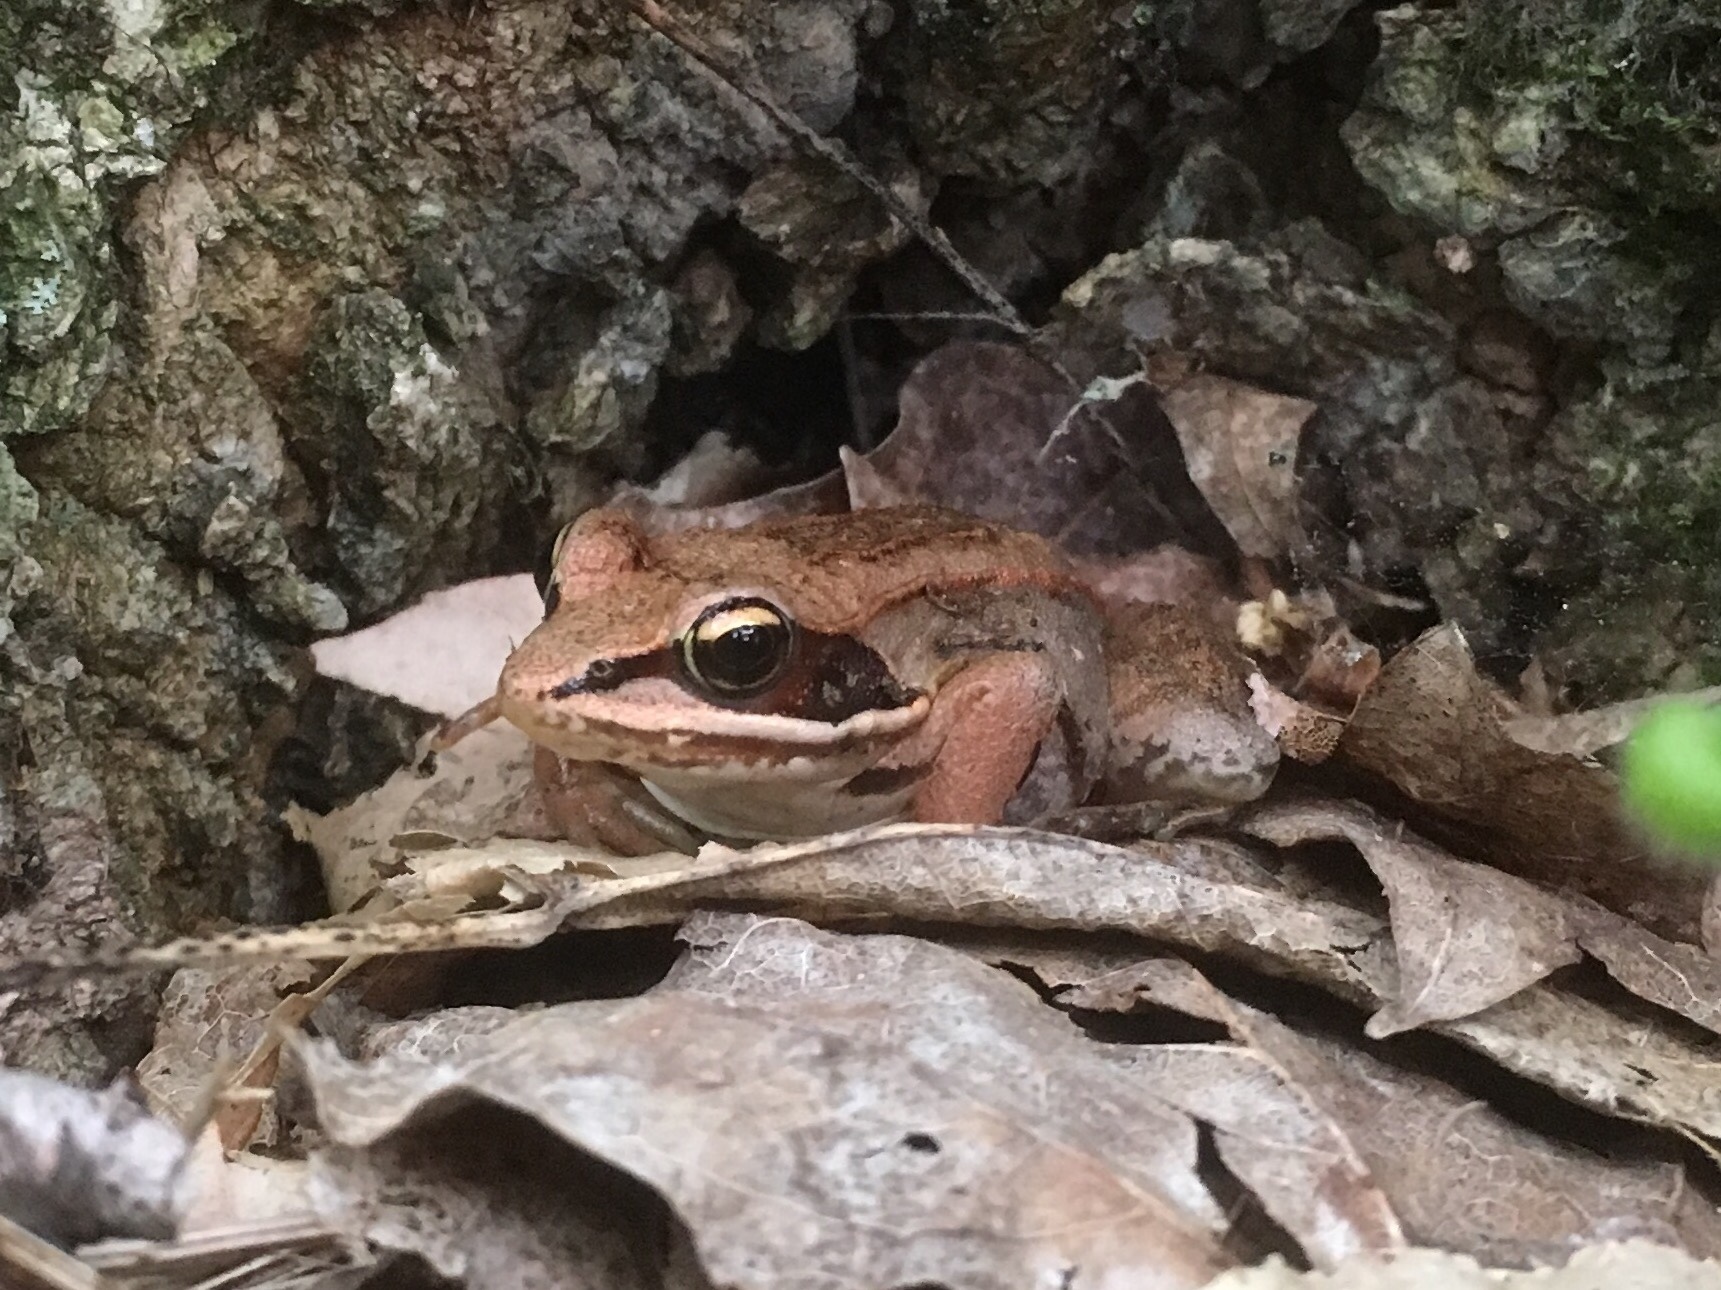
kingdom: Animalia
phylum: Chordata
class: Amphibia
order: Anura
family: Ranidae
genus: Lithobates
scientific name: Lithobates sylvaticus
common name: Wood frog
